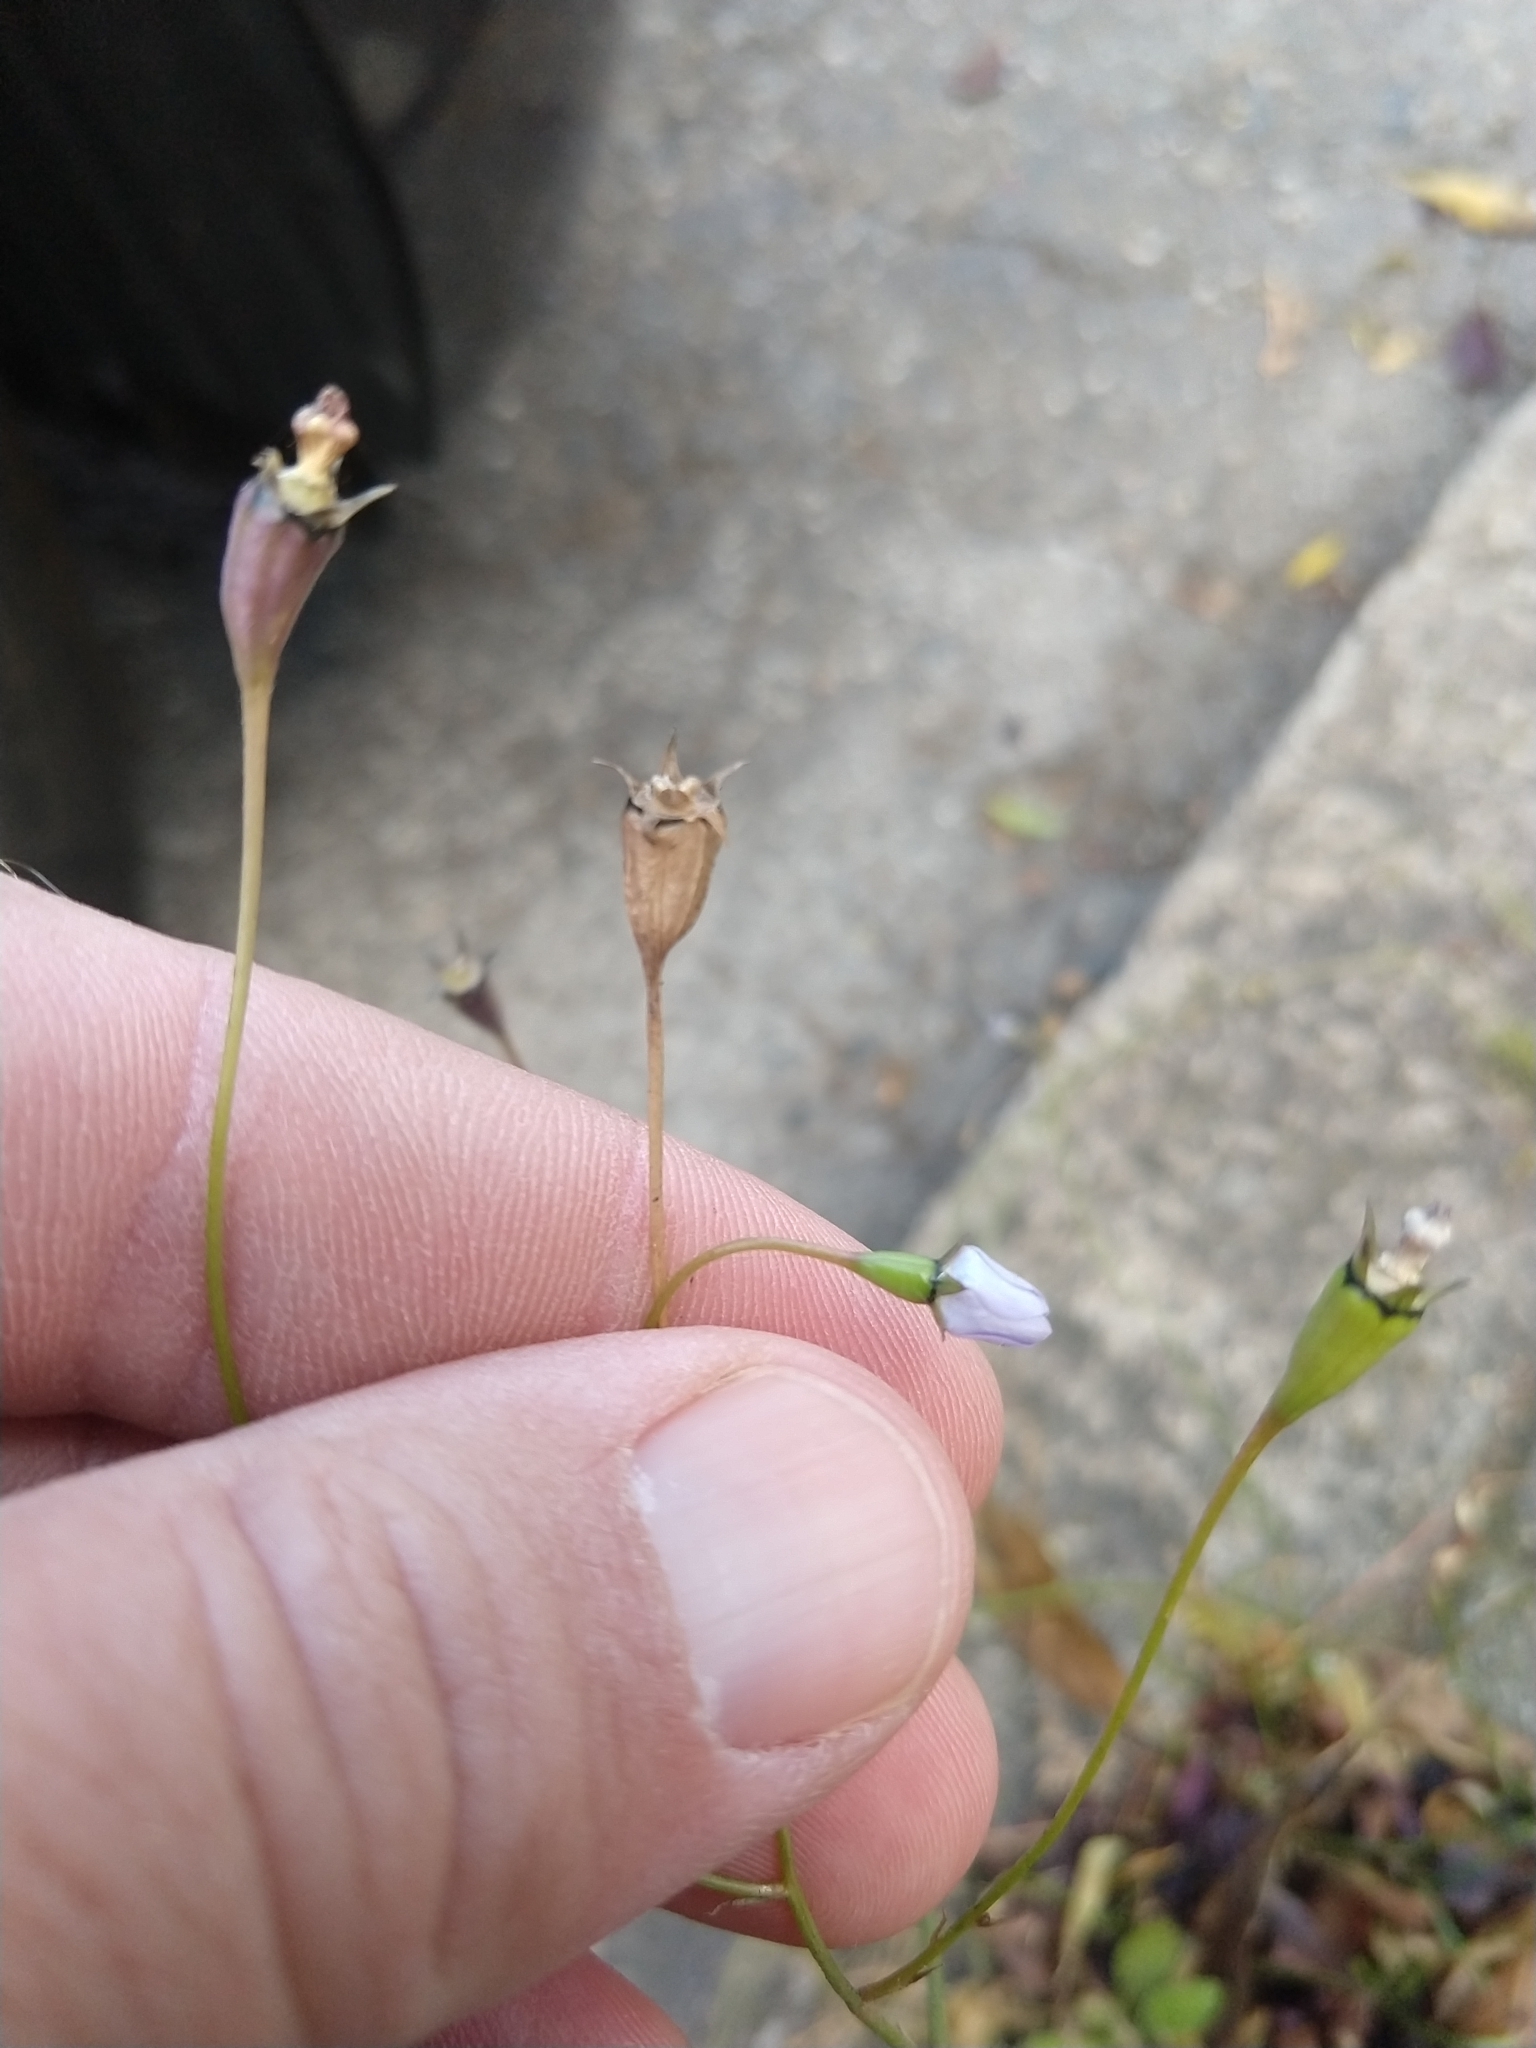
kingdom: Plantae
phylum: Tracheophyta
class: Magnoliopsida
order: Asterales
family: Campanulaceae
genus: Wahlenbergia
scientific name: Wahlenbergia marginata
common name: Southern rockbell
